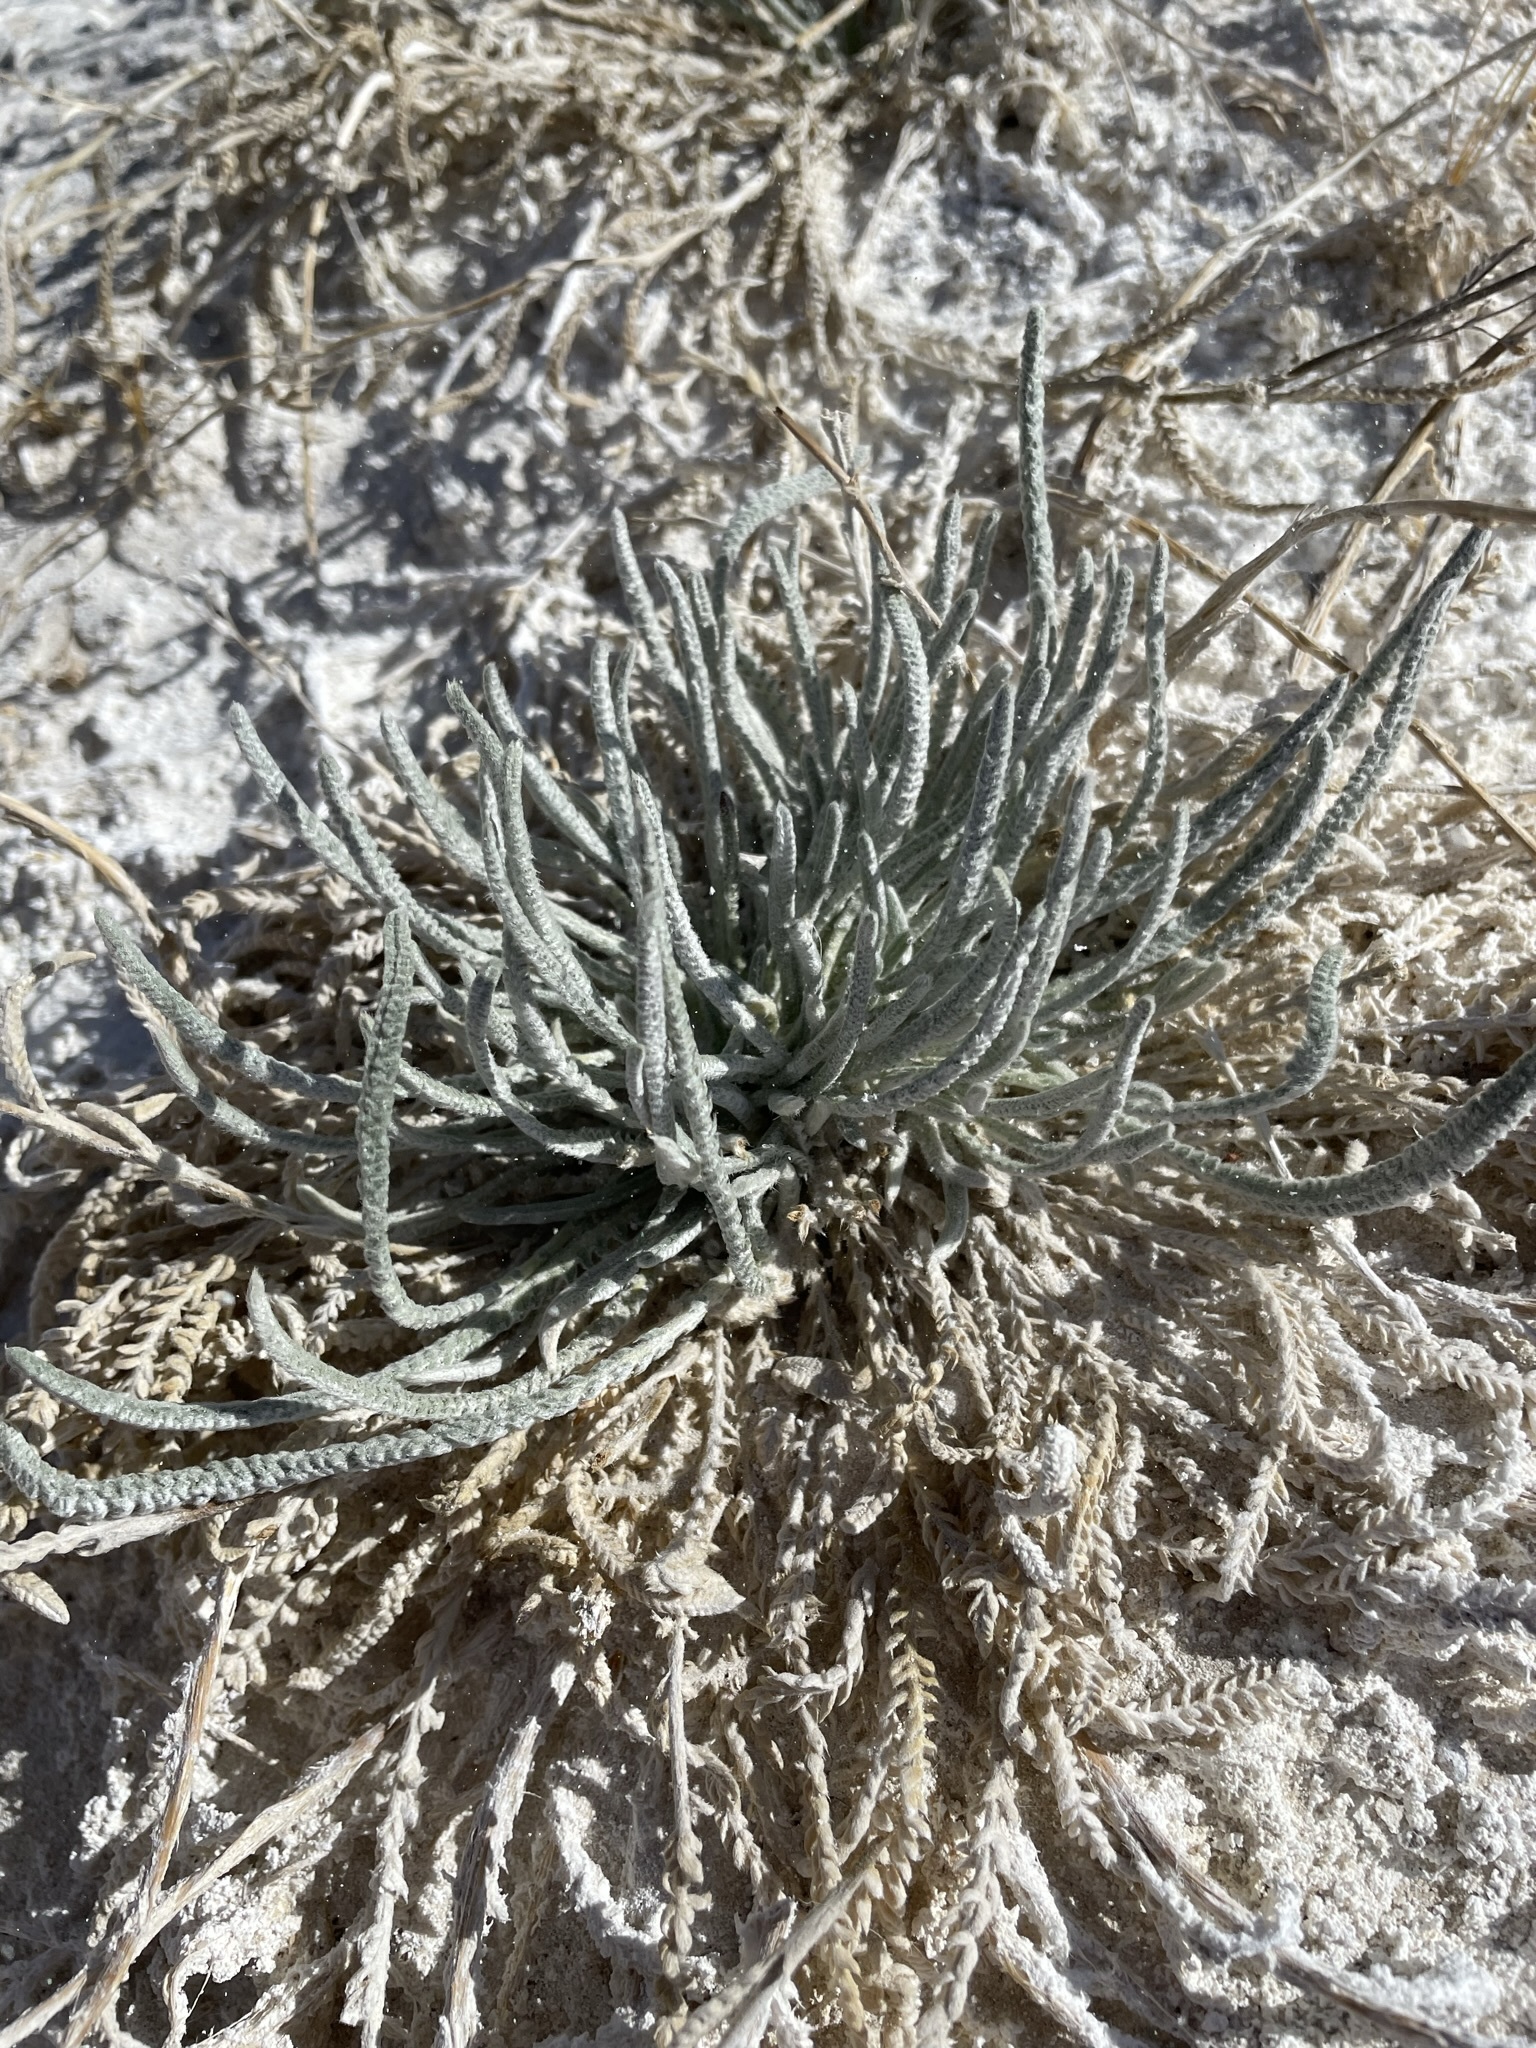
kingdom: Plantae
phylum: Tracheophyta
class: Magnoliopsida
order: Rosales
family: Rosaceae
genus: Potentilla
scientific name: Potentilla kingii
